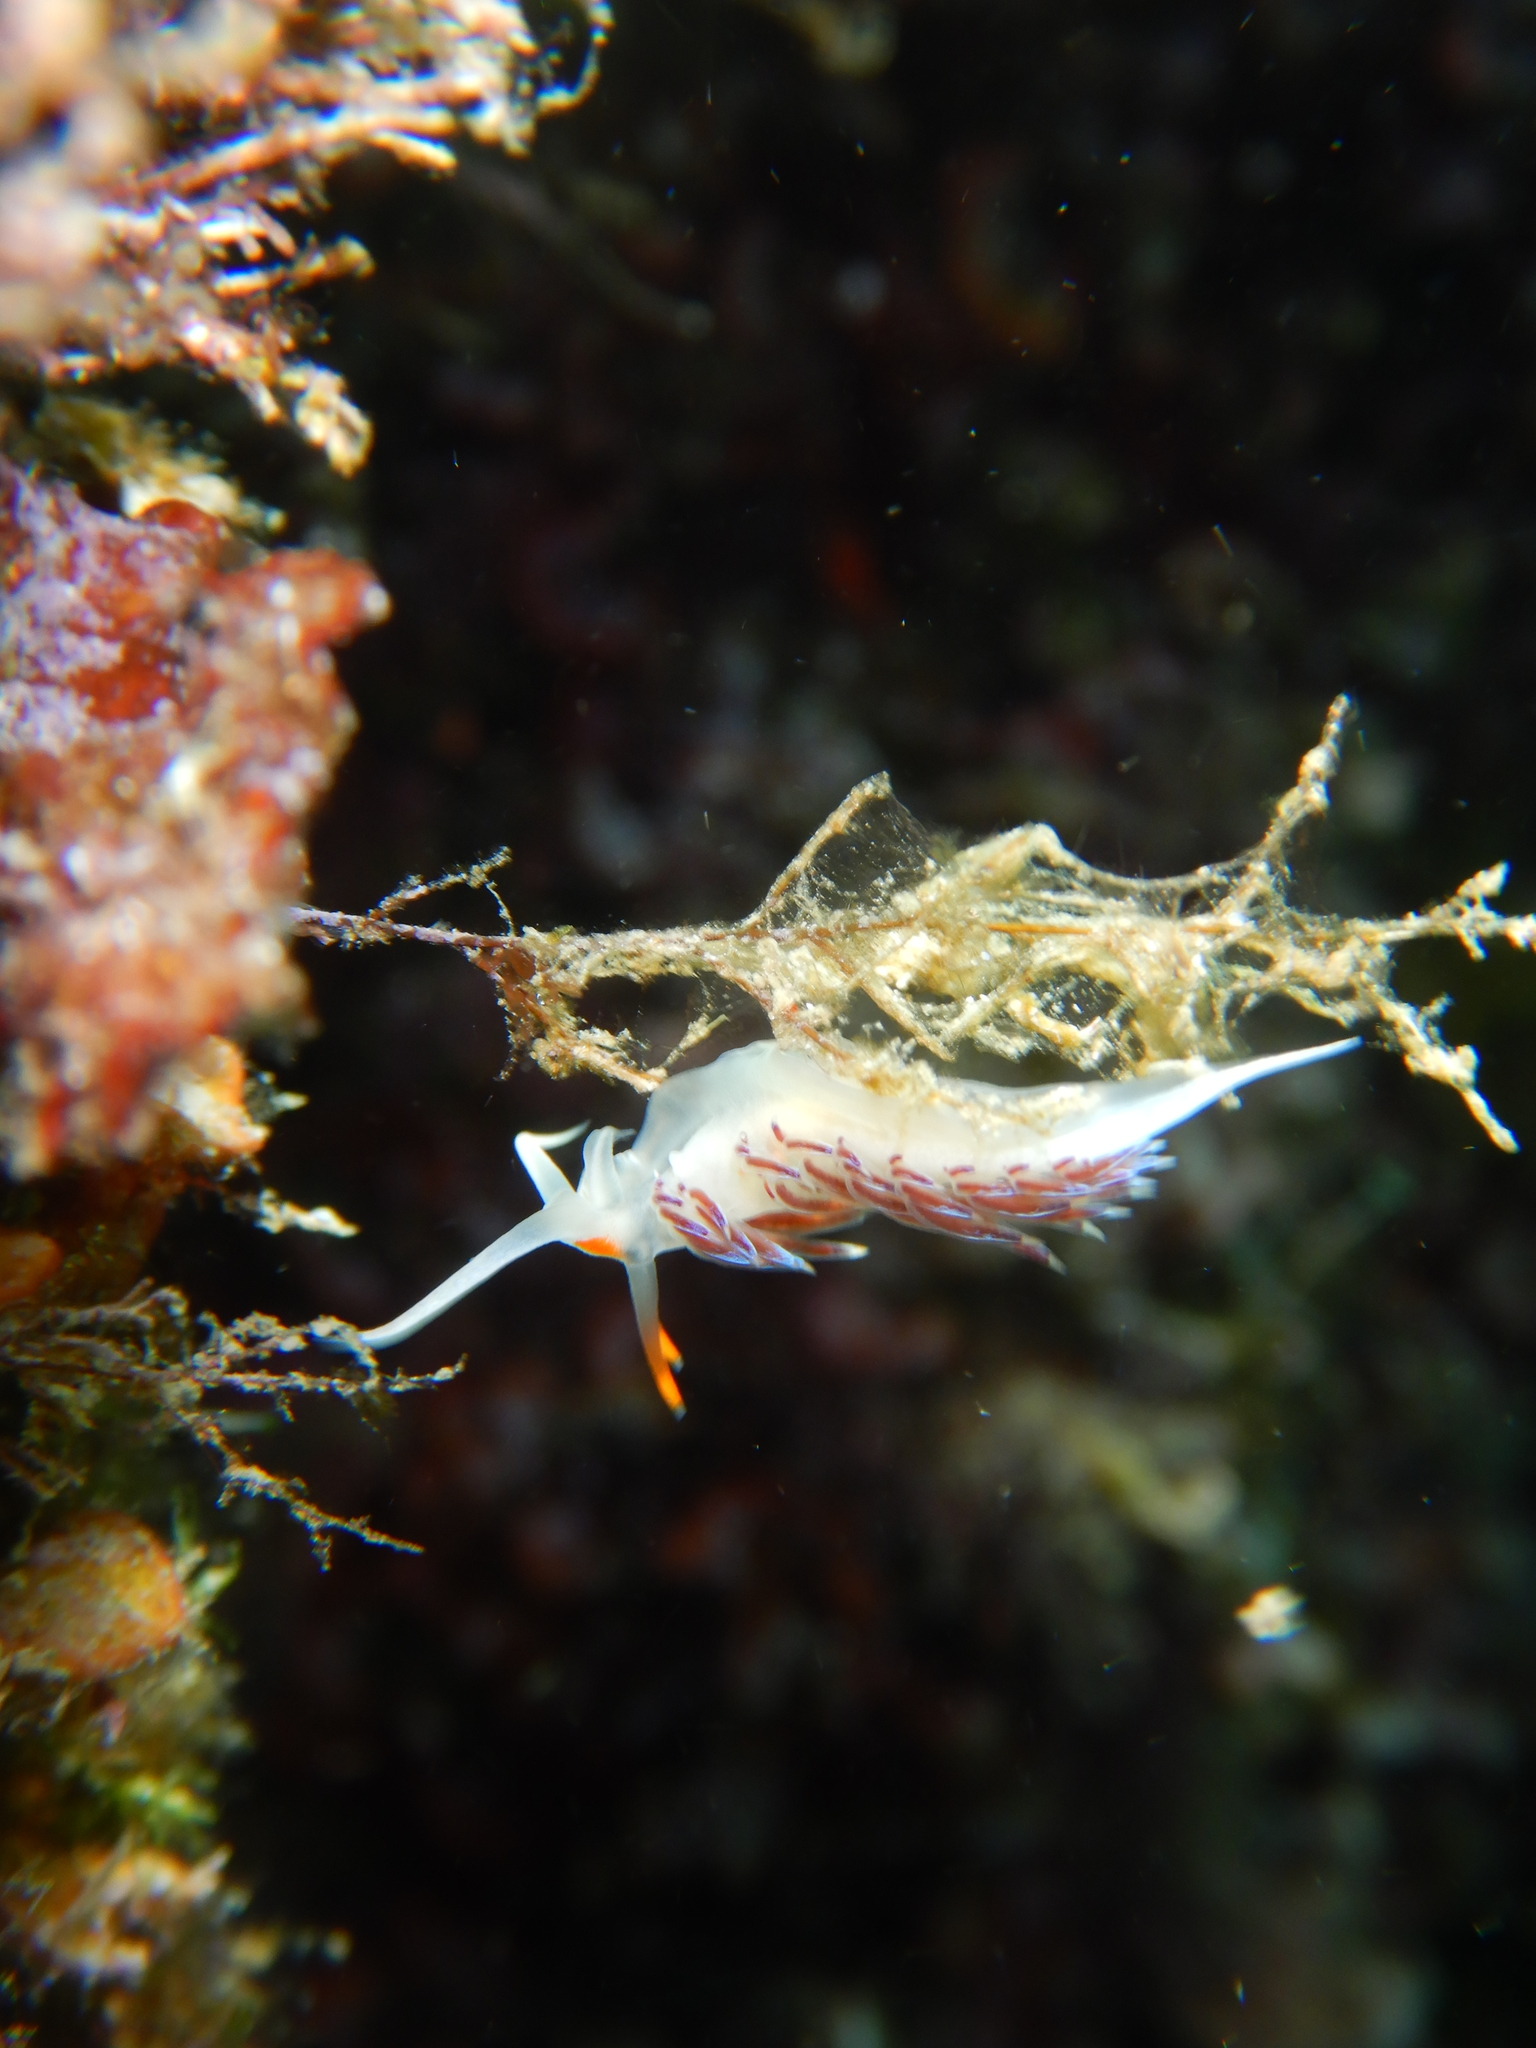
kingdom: Animalia
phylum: Mollusca
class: Gastropoda
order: Nudibranchia
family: Facelinidae
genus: Cratena
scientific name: Cratena peregrina
